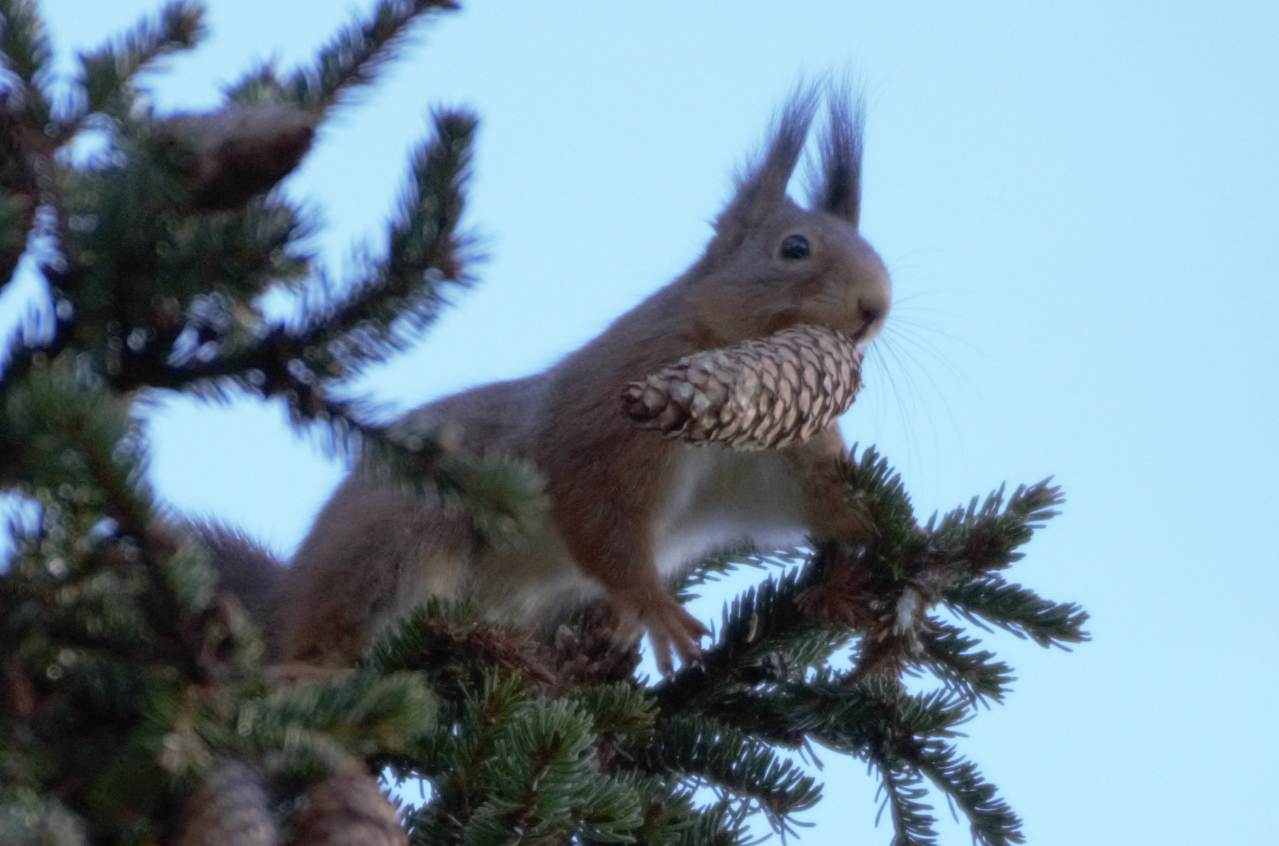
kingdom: Animalia
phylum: Chordata
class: Mammalia
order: Rodentia
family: Sciuridae
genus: Sciurus
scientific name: Sciurus vulgaris
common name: Eurasian red squirrel
